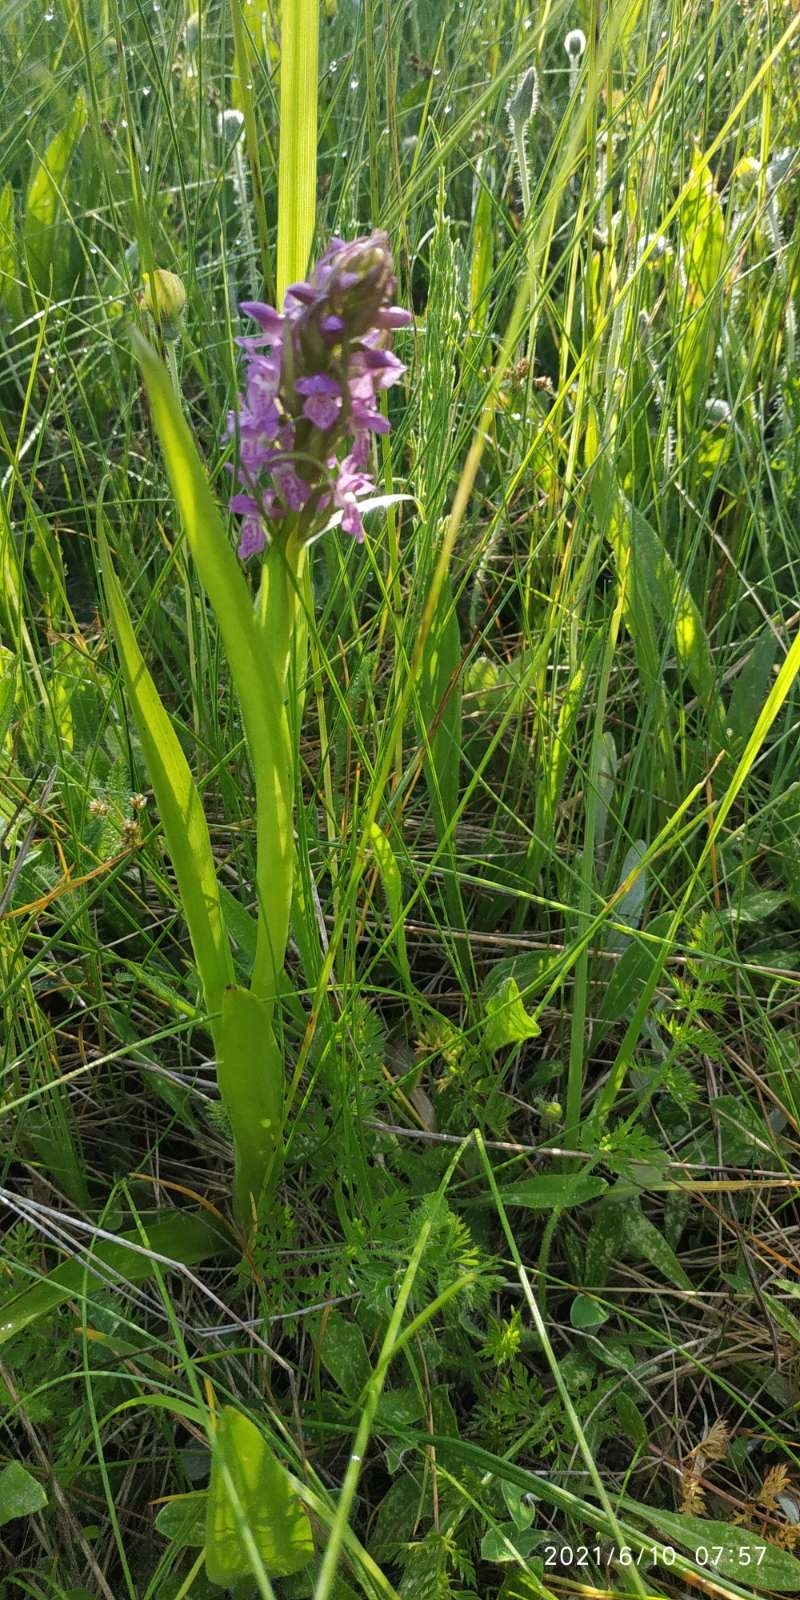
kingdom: Plantae
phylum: Tracheophyta
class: Liliopsida
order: Asparagales
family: Orchidaceae
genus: Dactylorhiza
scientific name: Dactylorhiza incarnata
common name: Early marsh-orchid
